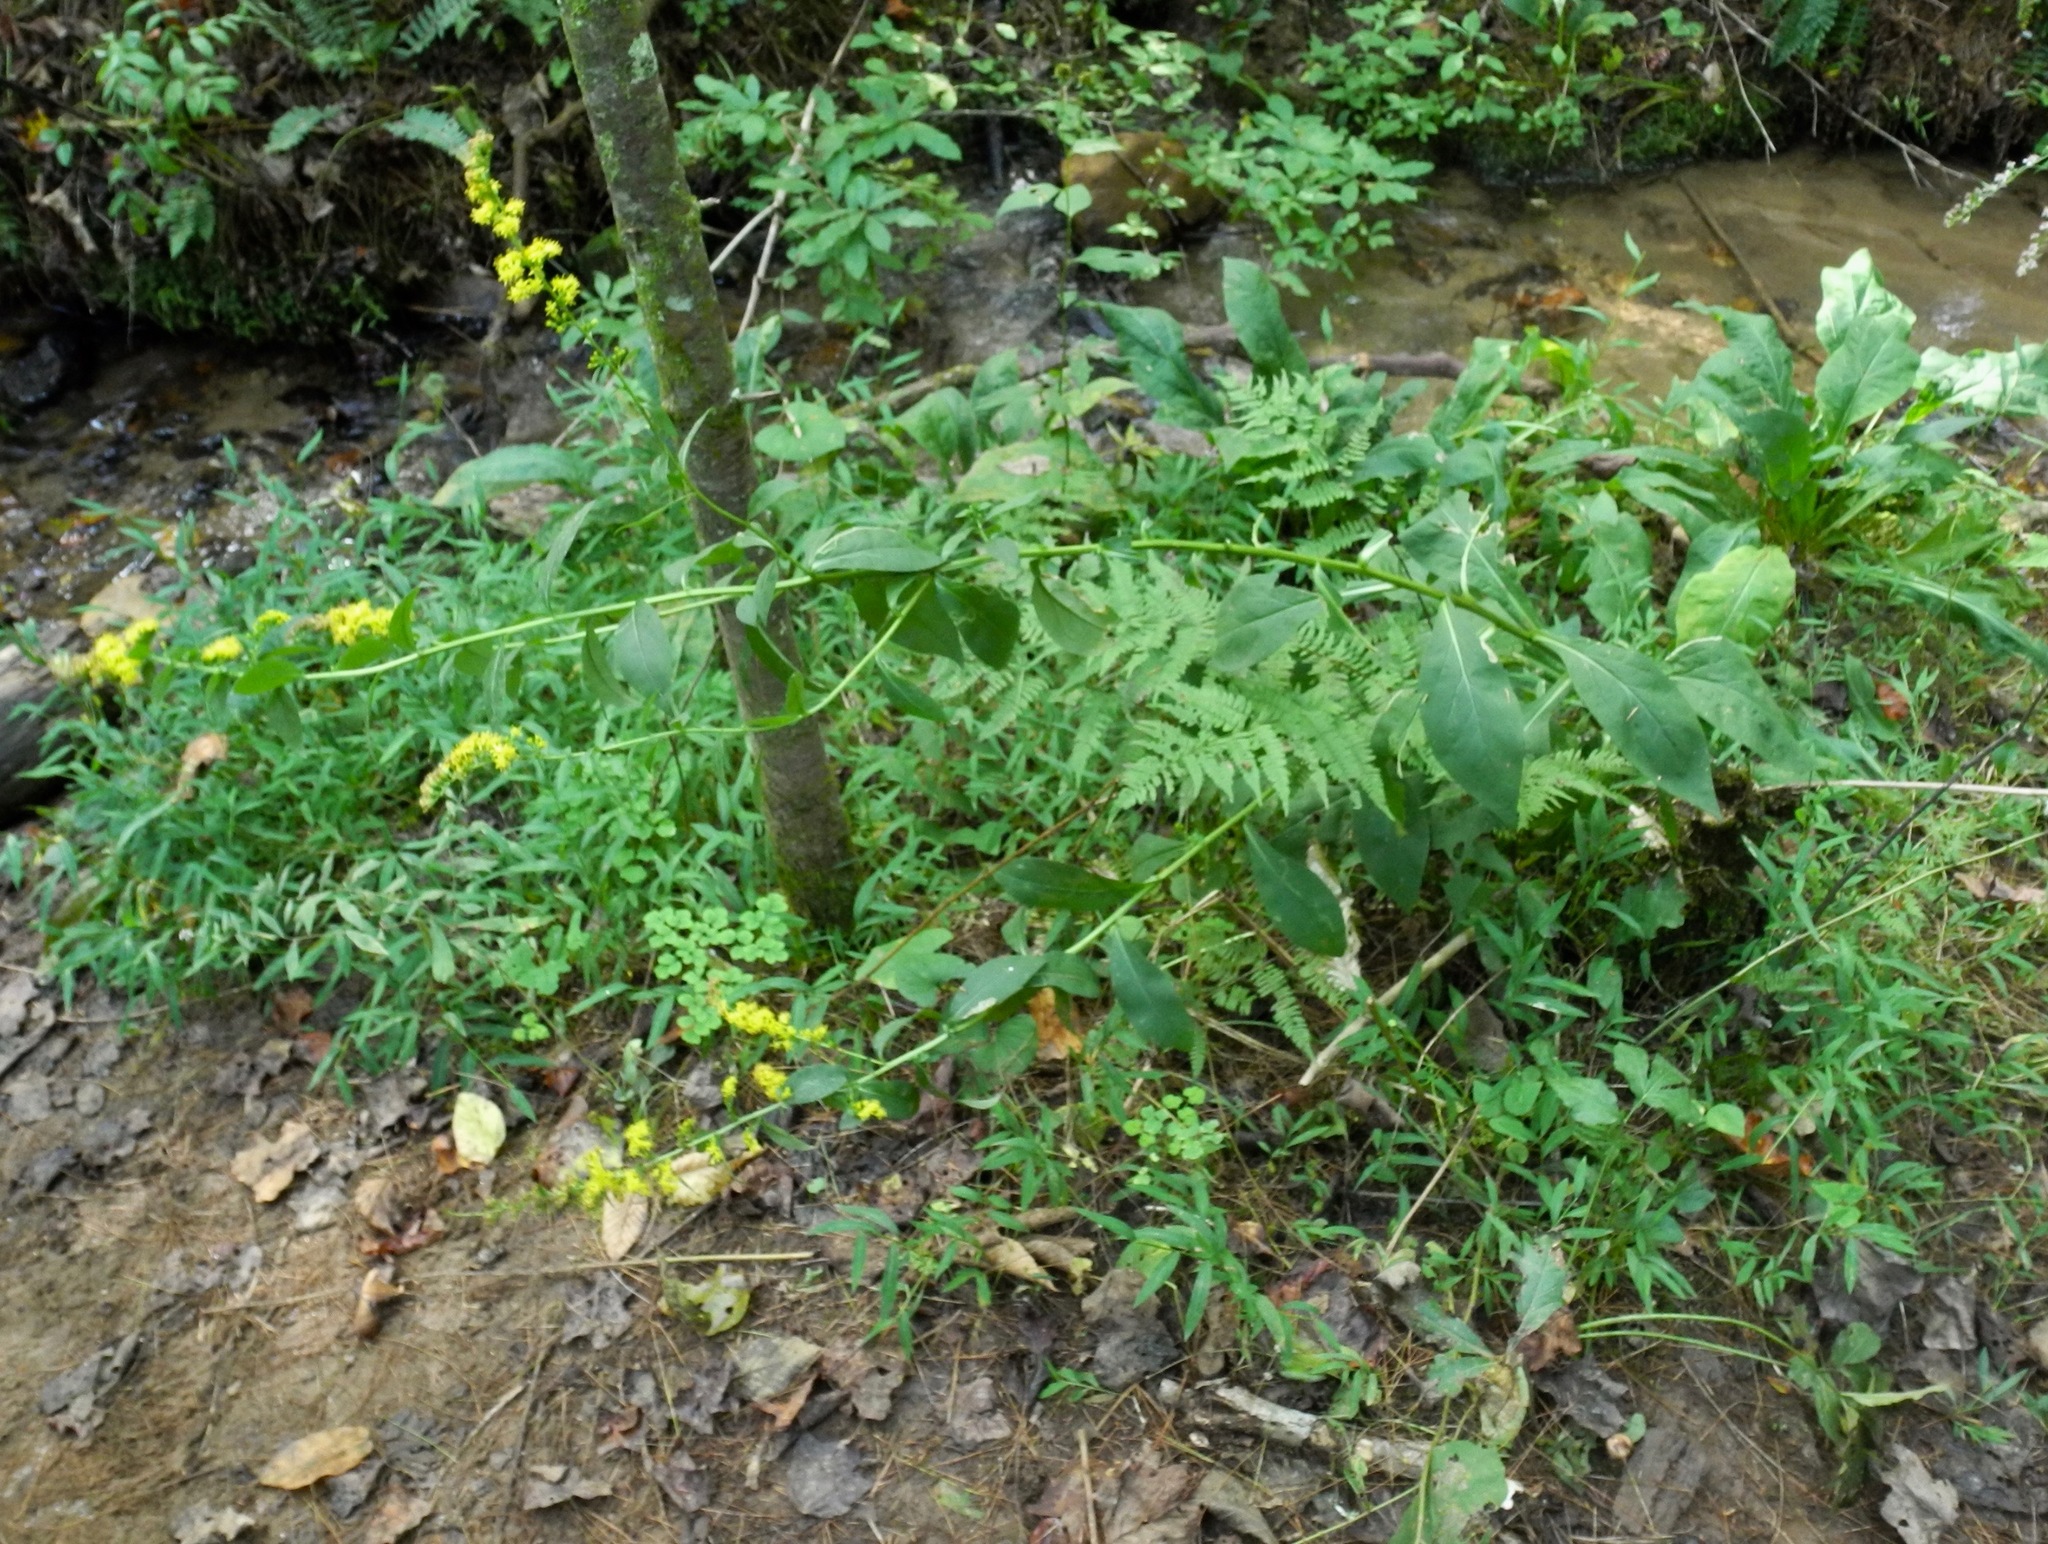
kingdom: Plantae
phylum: Tracheophyta
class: Magnoliopsida
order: Asterales
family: Asteraceae
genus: Solidago
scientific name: Solidago patula
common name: Rough-leaf goldenrod
